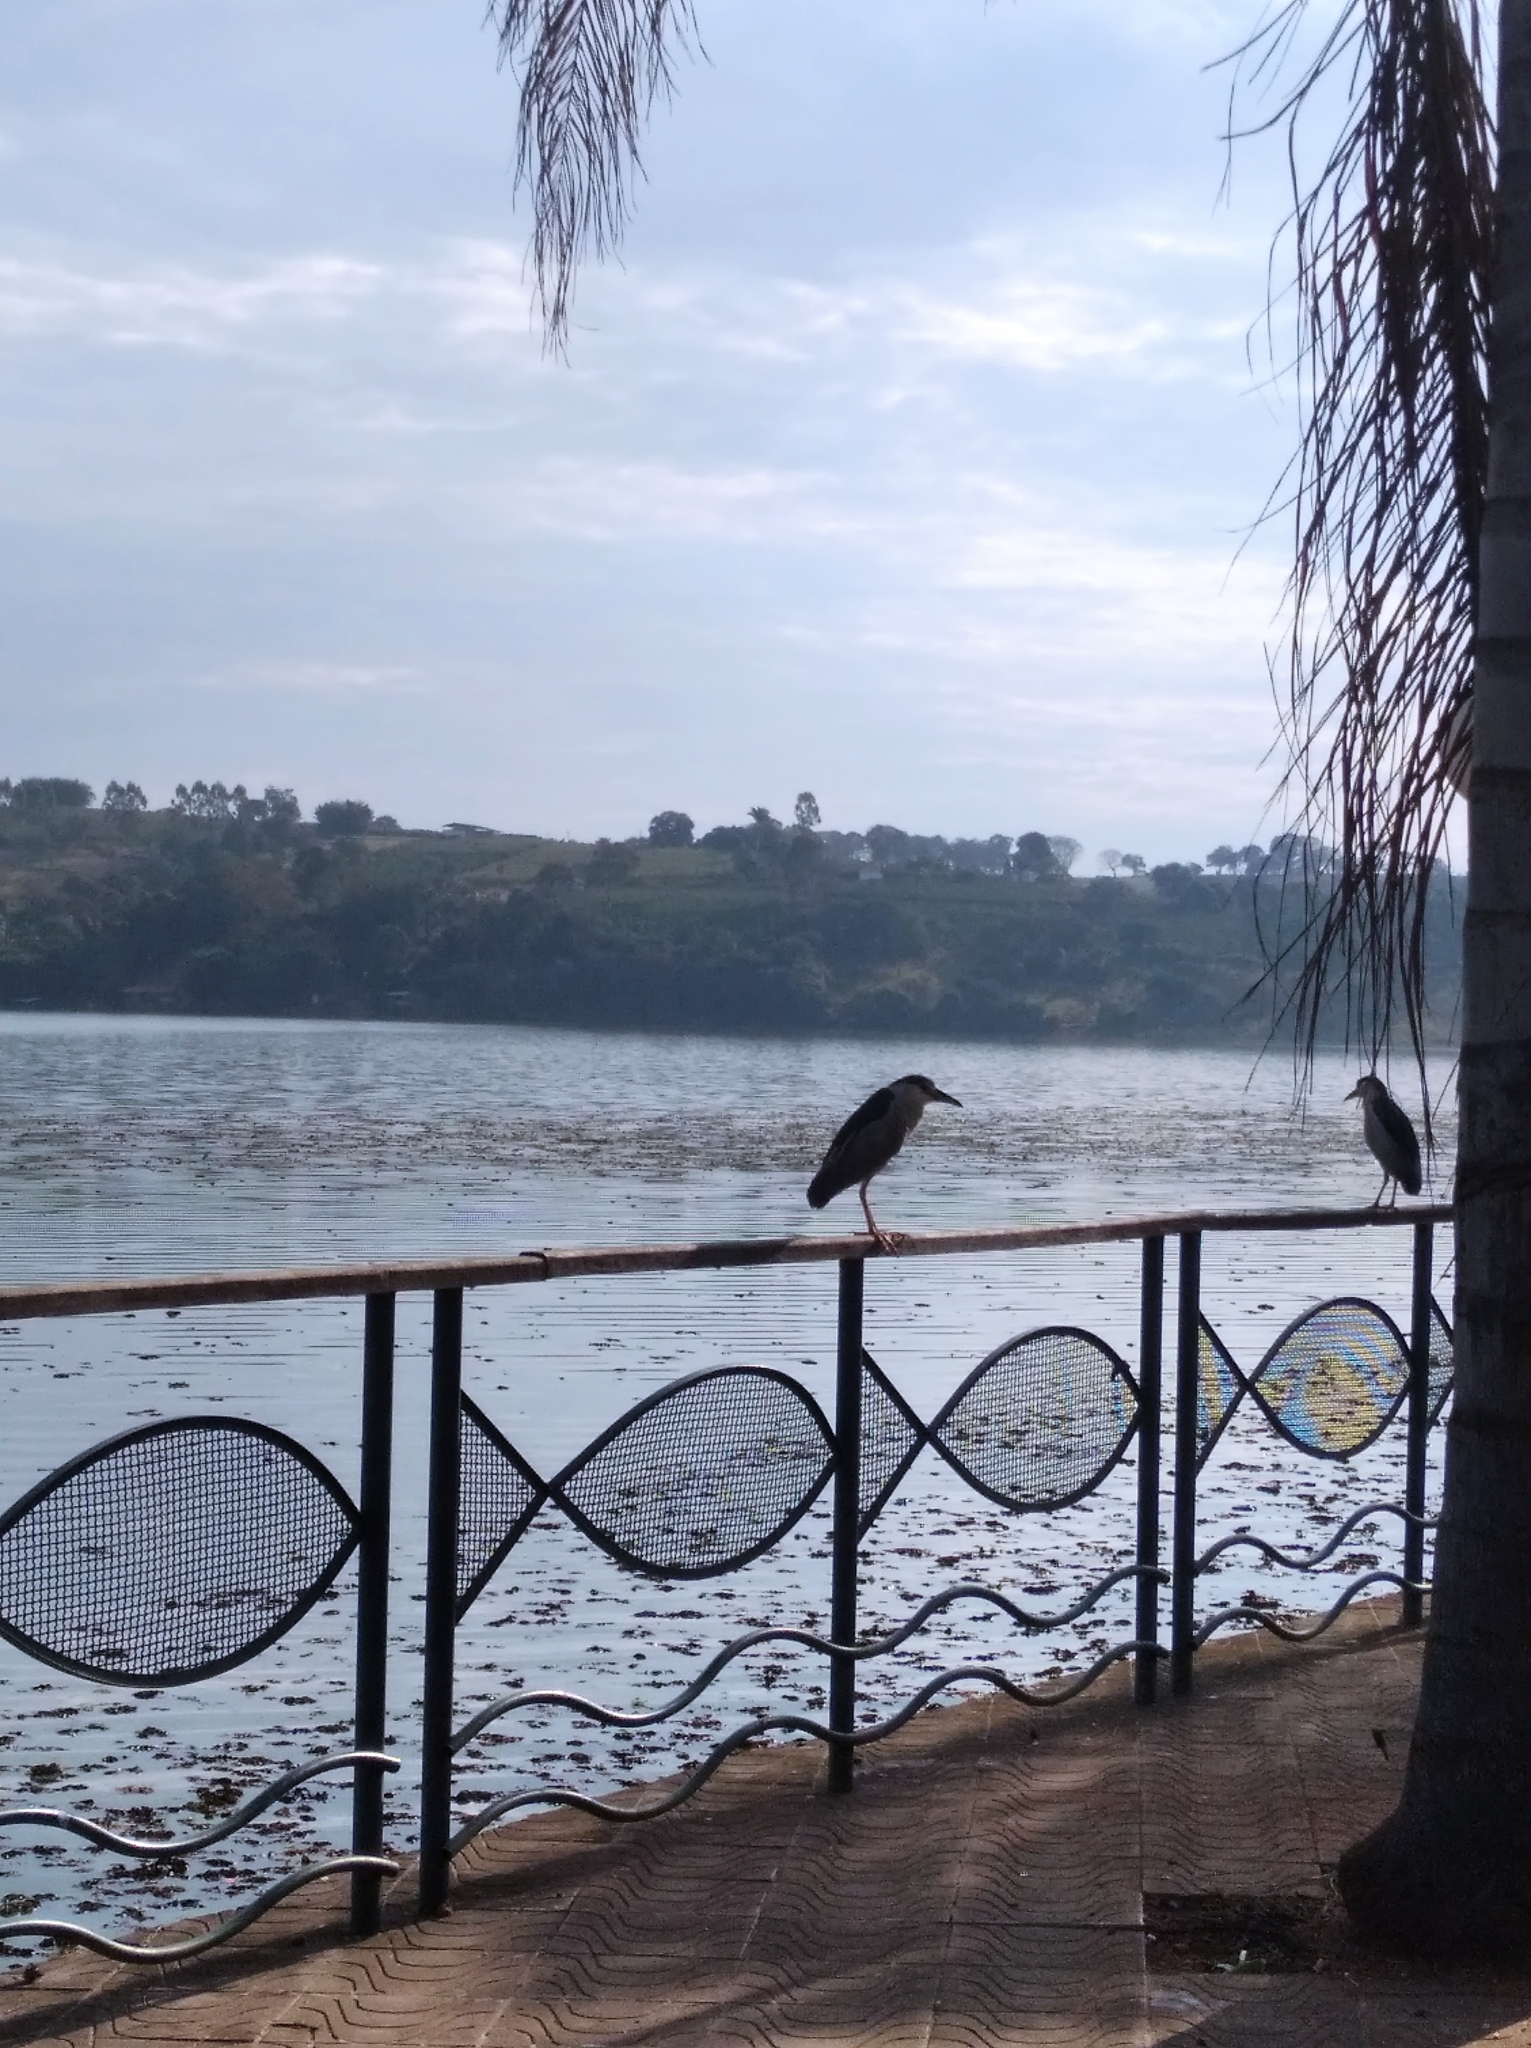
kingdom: Animalia
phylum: Chordata
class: Aves
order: Pelecaniformes
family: Ardeidae
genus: Nycticorax
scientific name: Nycticorax nycticorax
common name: Black-crowned night heron
